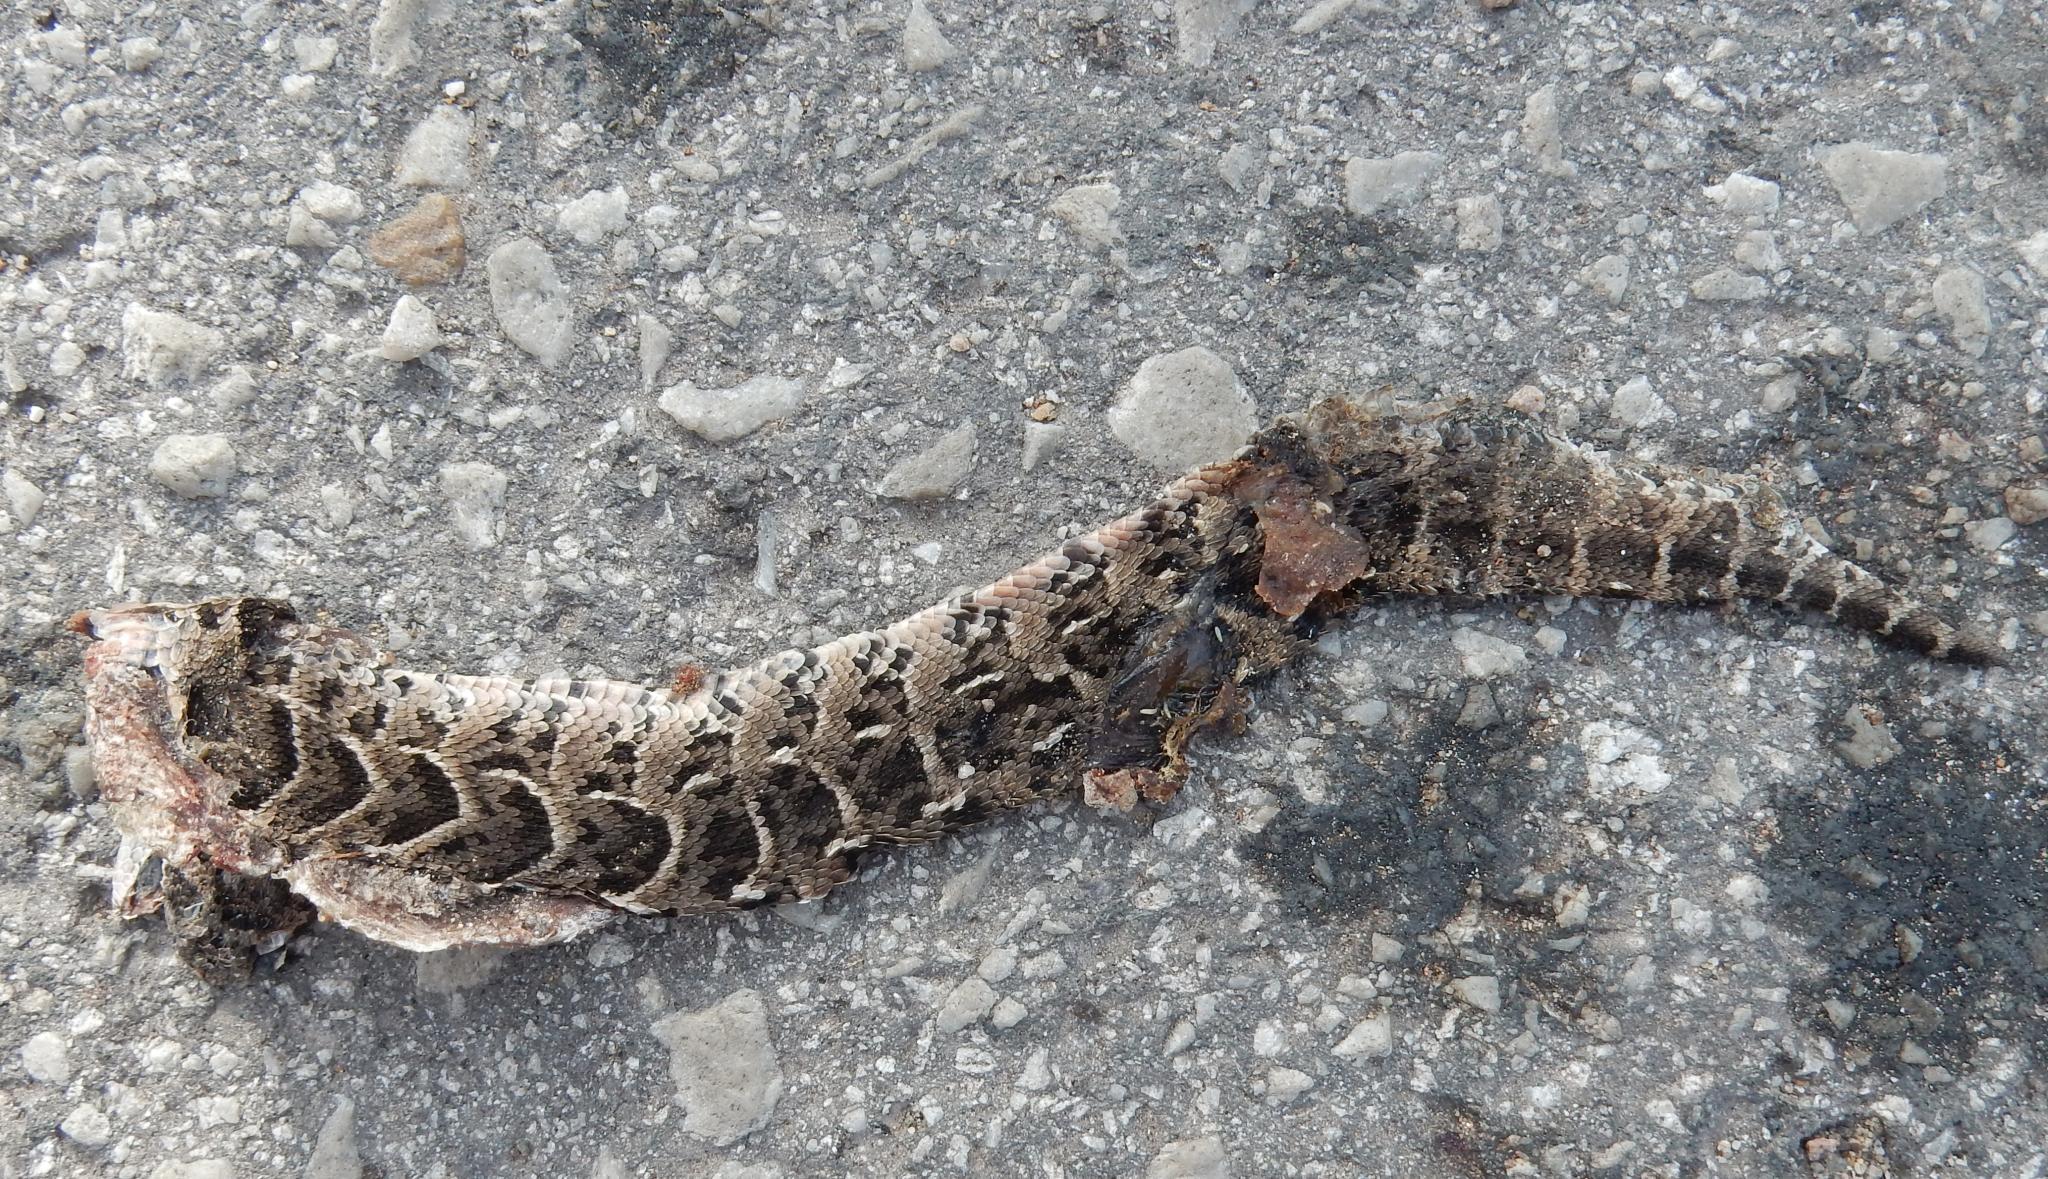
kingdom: Animalia
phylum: Chordata
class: Squamata
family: Viperidae
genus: Bitis
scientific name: Bitis arietans
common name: Puff adder
